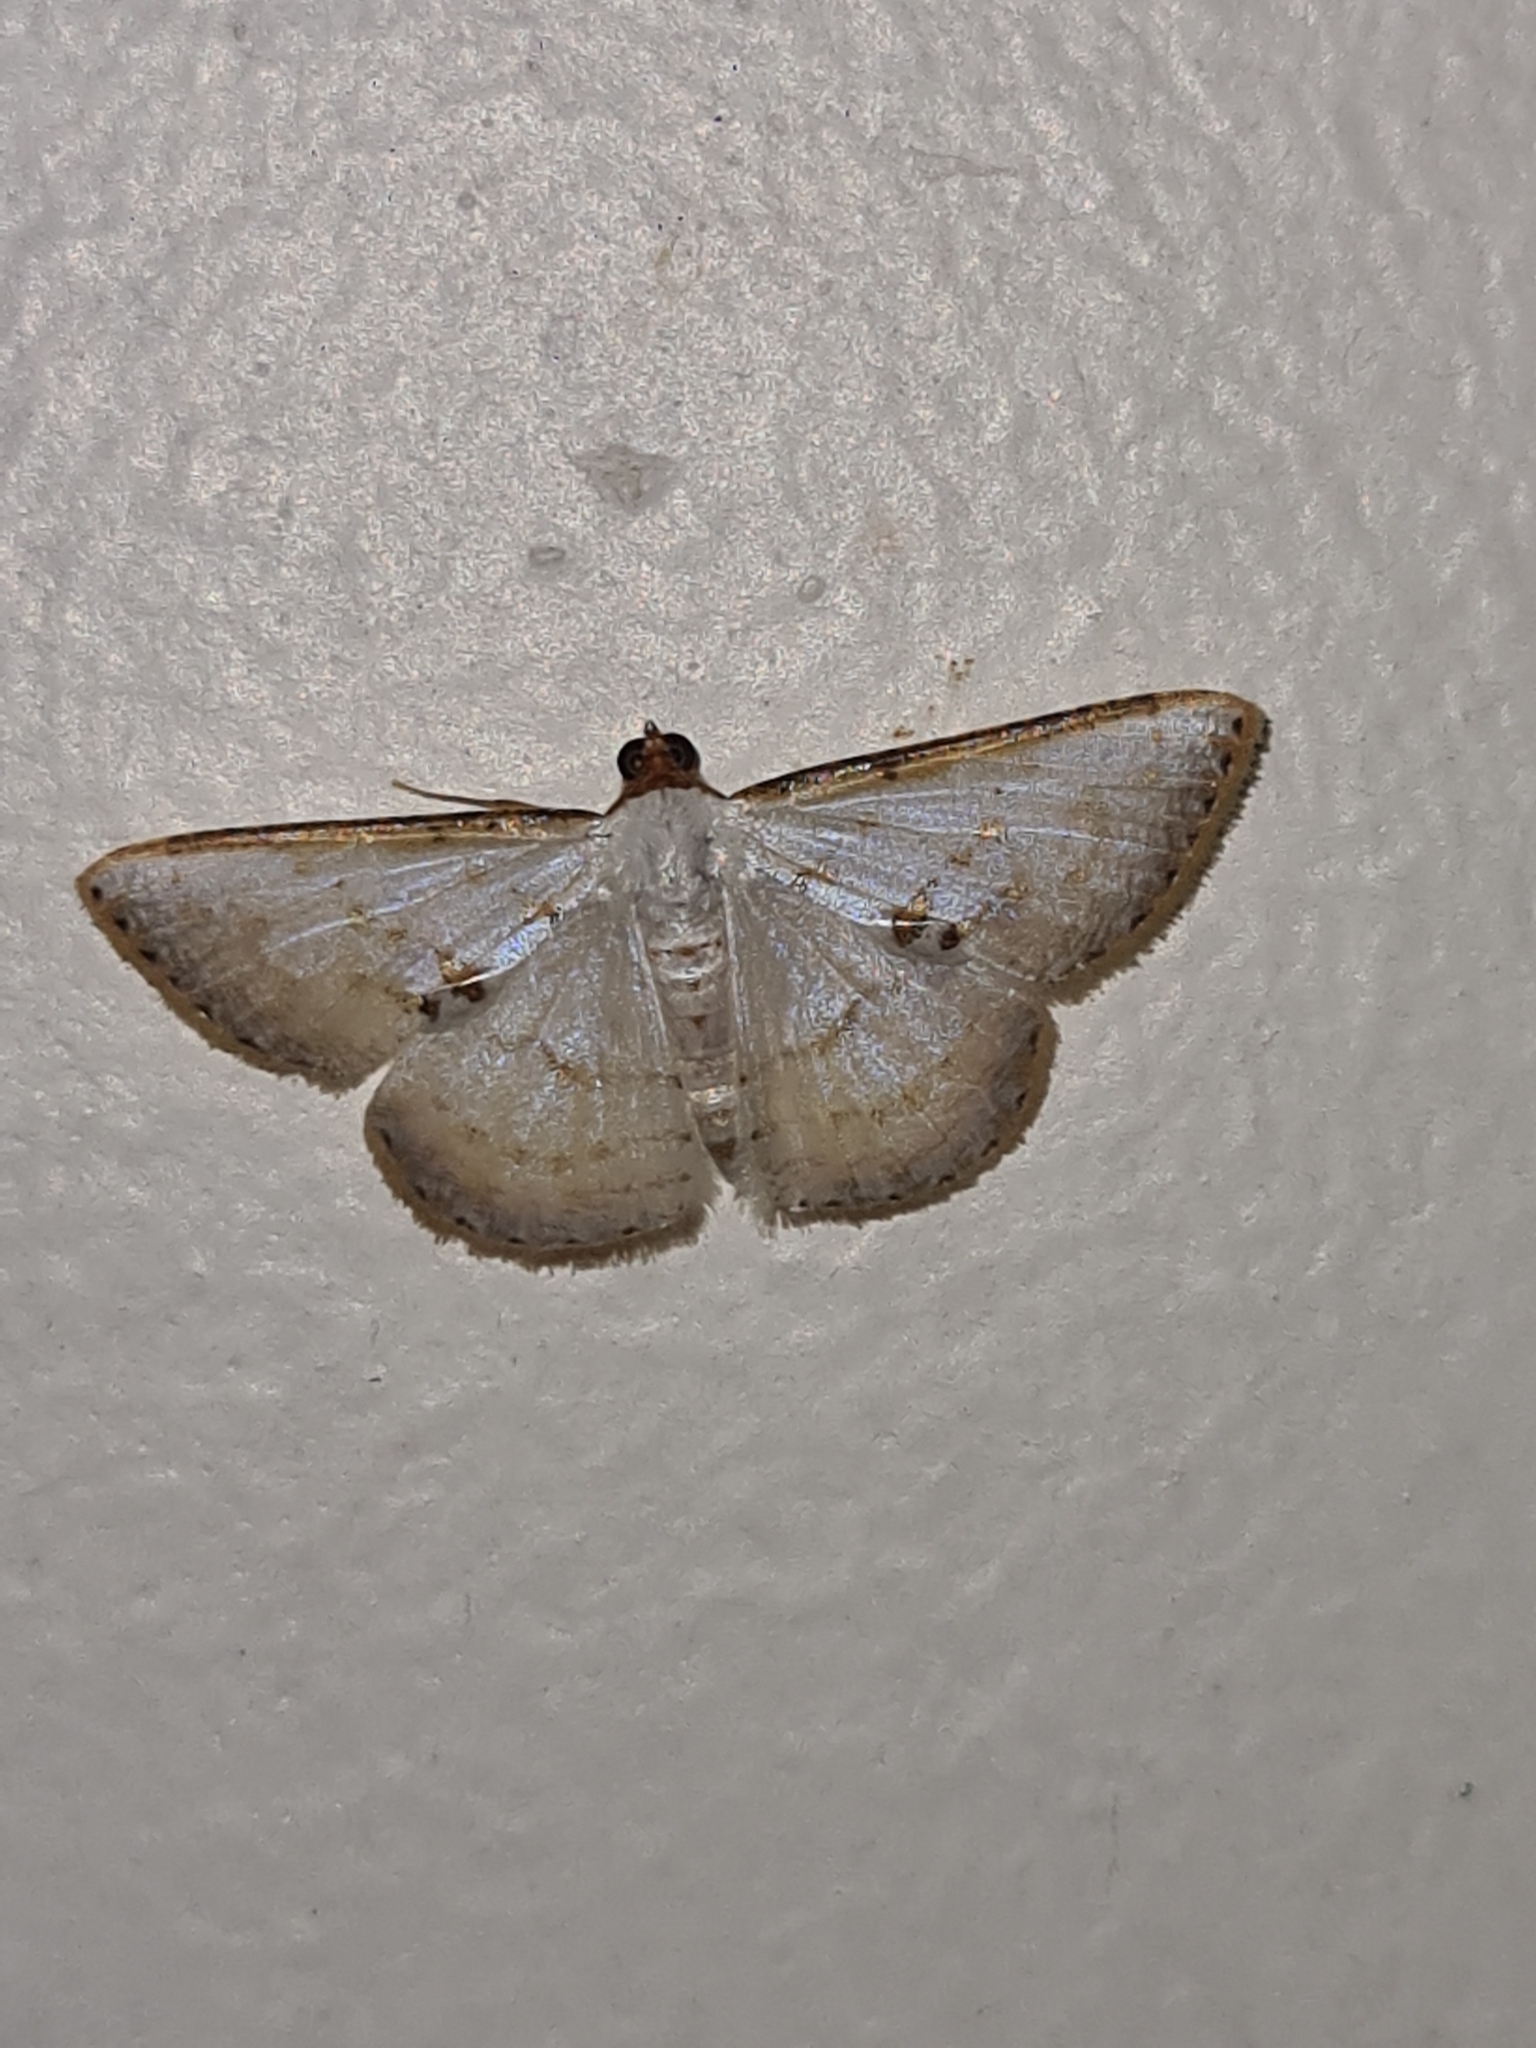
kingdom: Animalia
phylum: Arthropoda
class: Insecta
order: Lepidoptera
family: Geometridae
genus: Leuciris
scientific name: Leuciris fimbriaria
